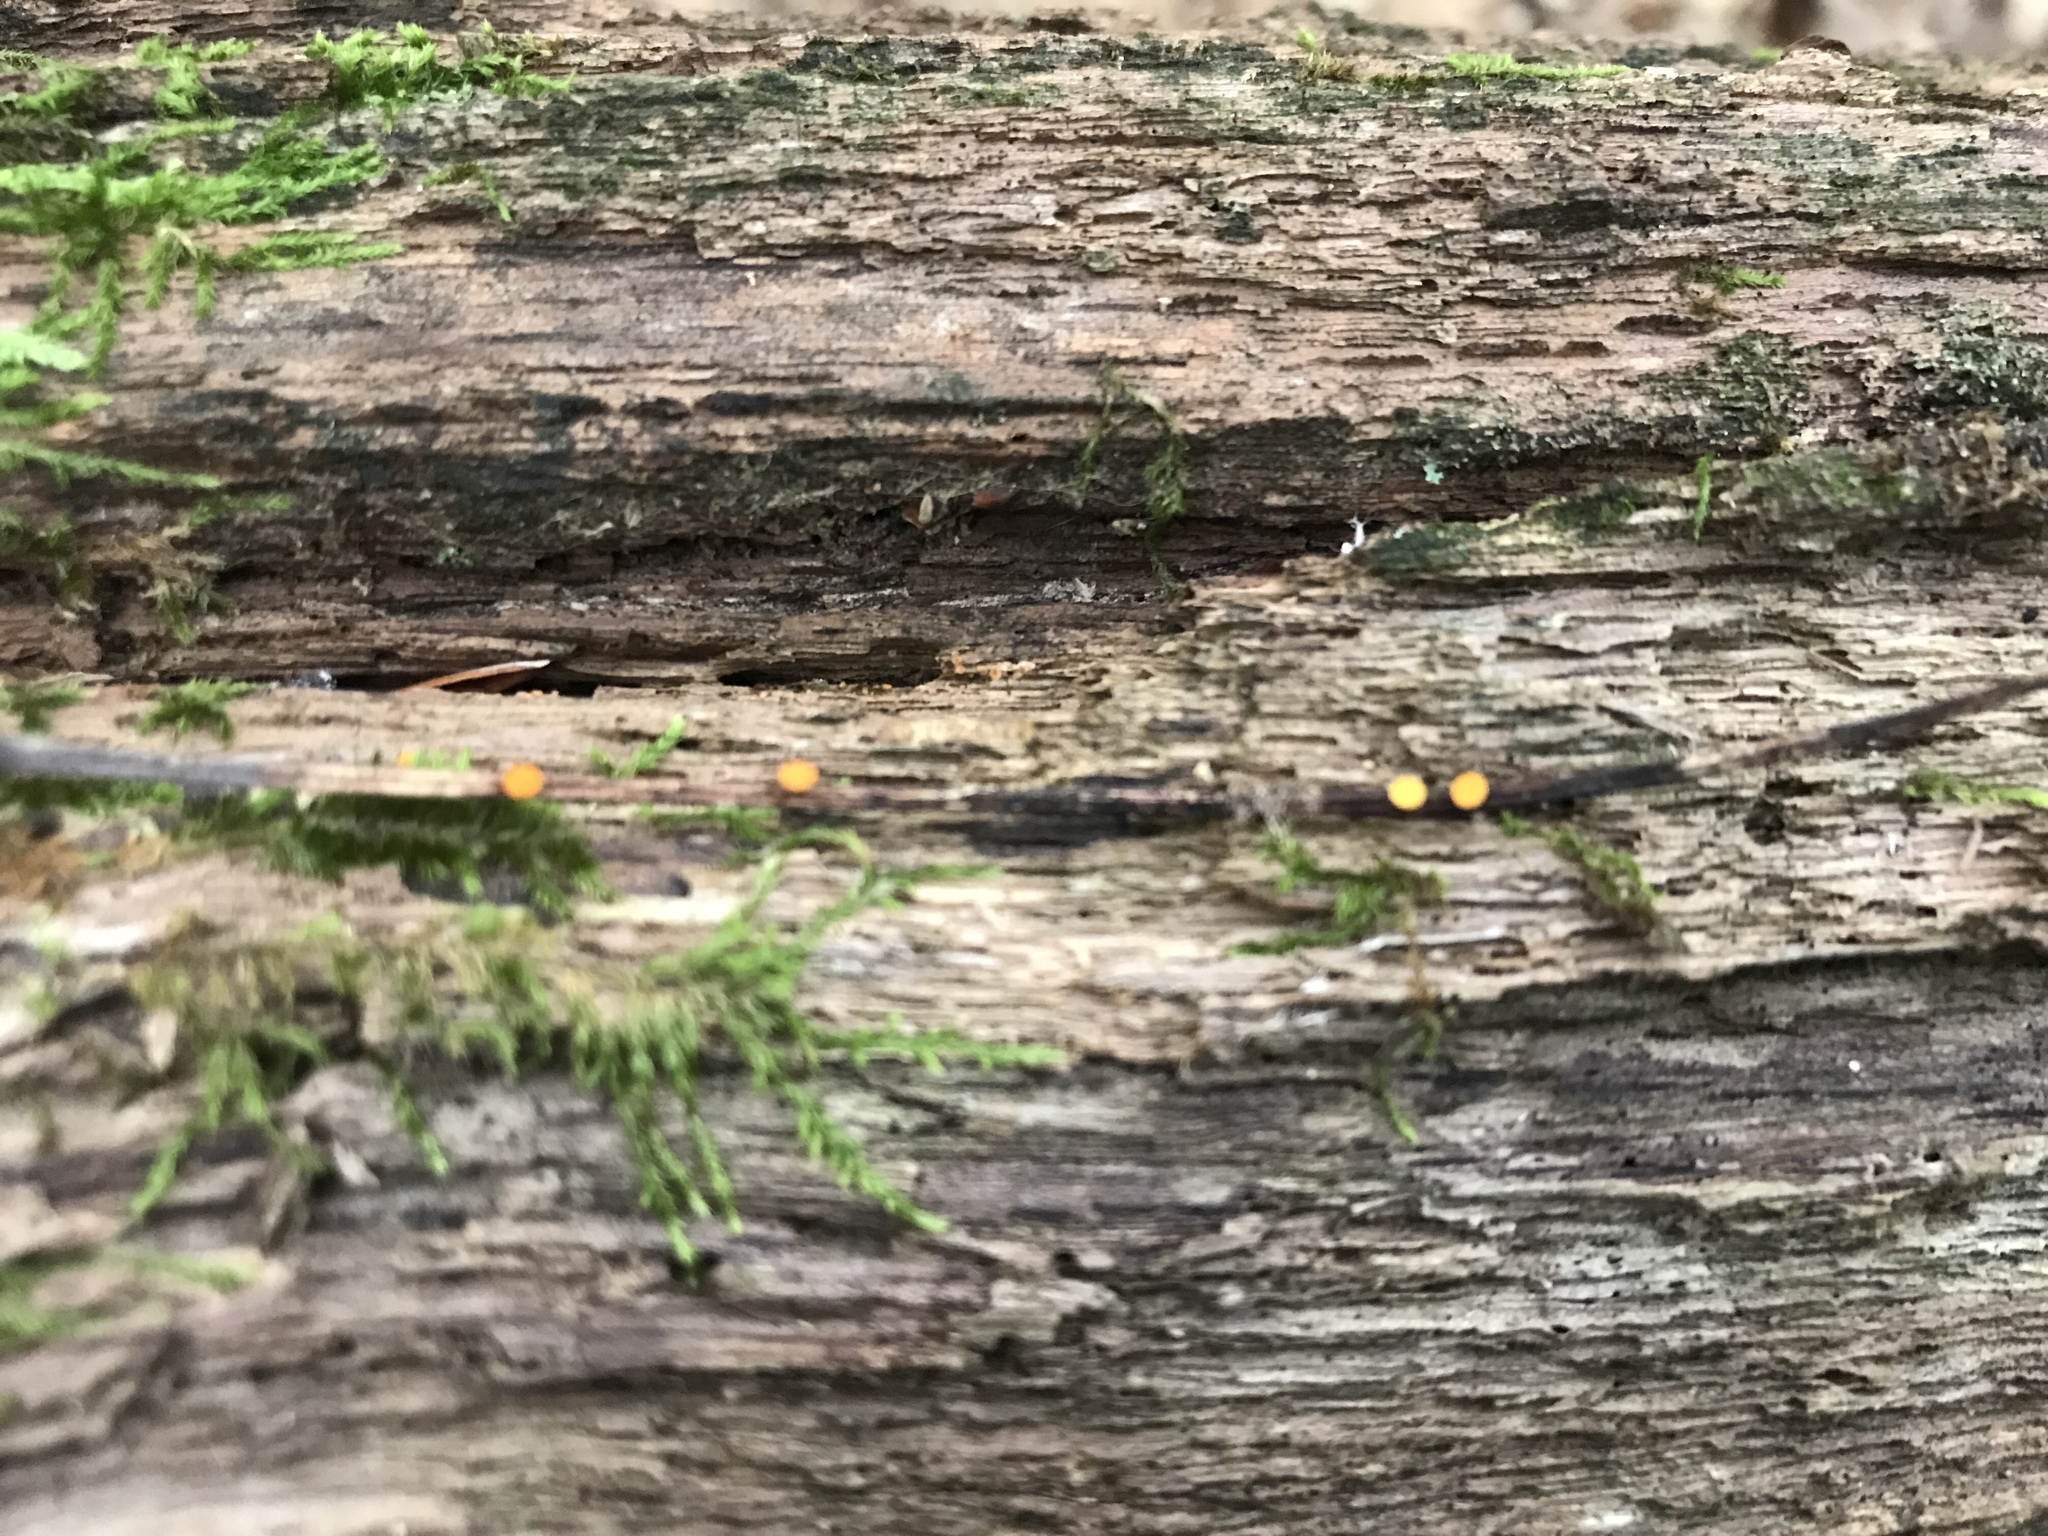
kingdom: Fungi
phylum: Ascomycota
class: Leotiomycetes
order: Helotiales
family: Helotiaceae
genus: Hymenoscyphus
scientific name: Hymenoscyphus caudatus
